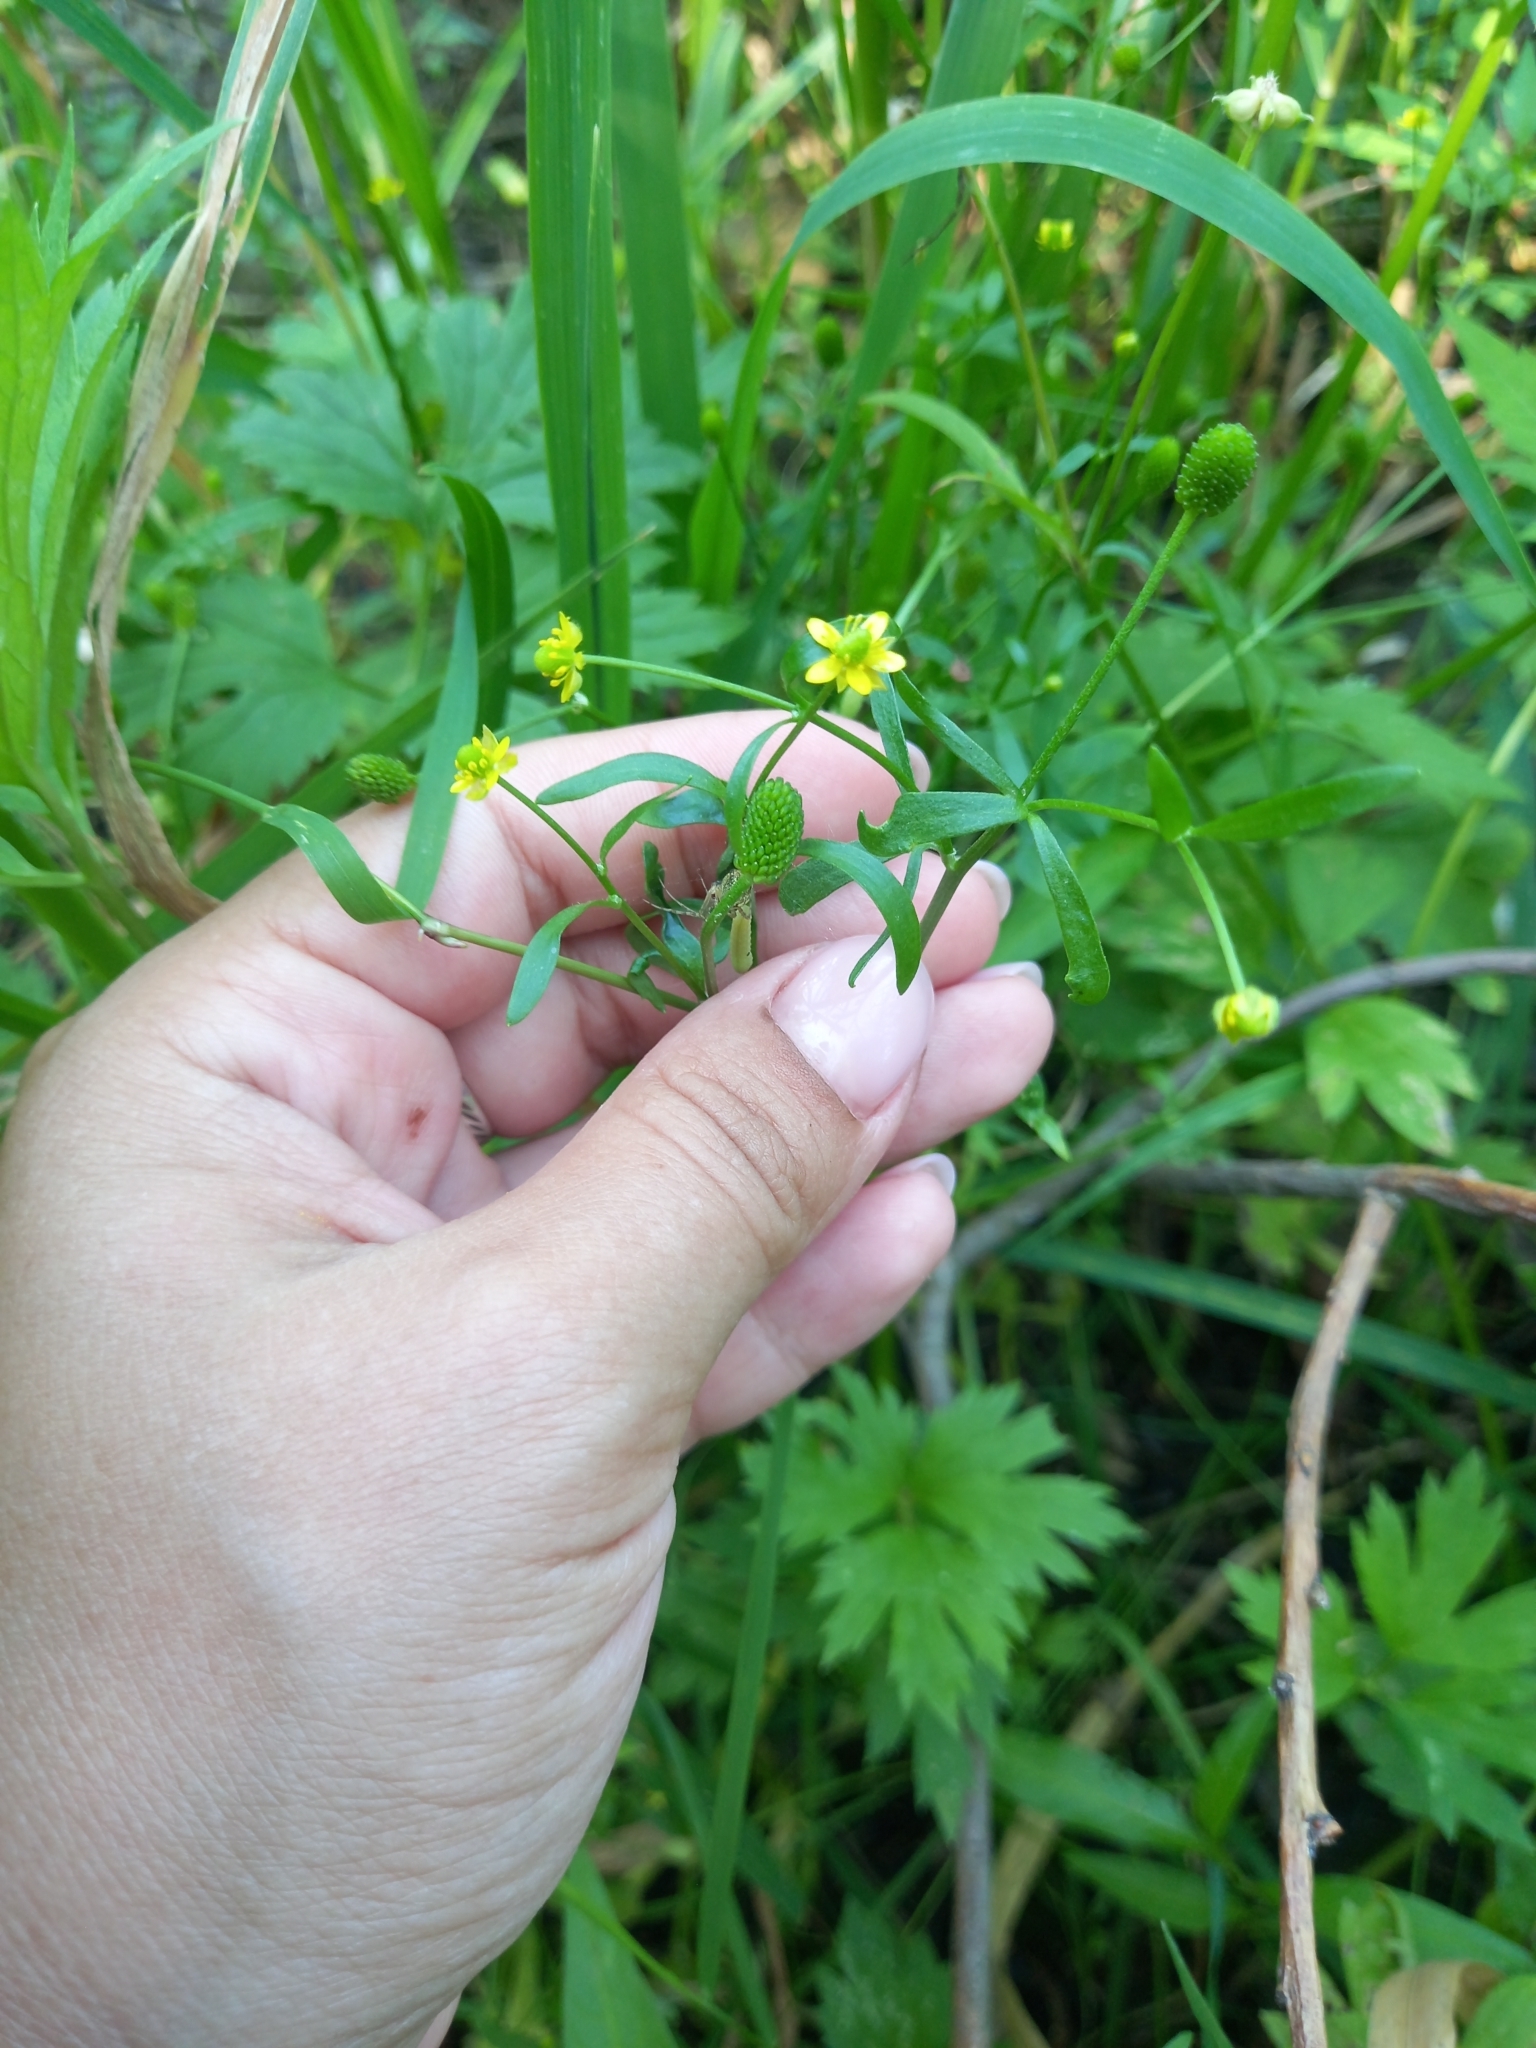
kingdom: Plantae
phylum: Tracheophyta
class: Magnoliopsida
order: Ranunculales
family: Ranunculaceae
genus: Ranunculus
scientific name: Ranunculus sceleratus
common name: Celery-leaved buttercup
